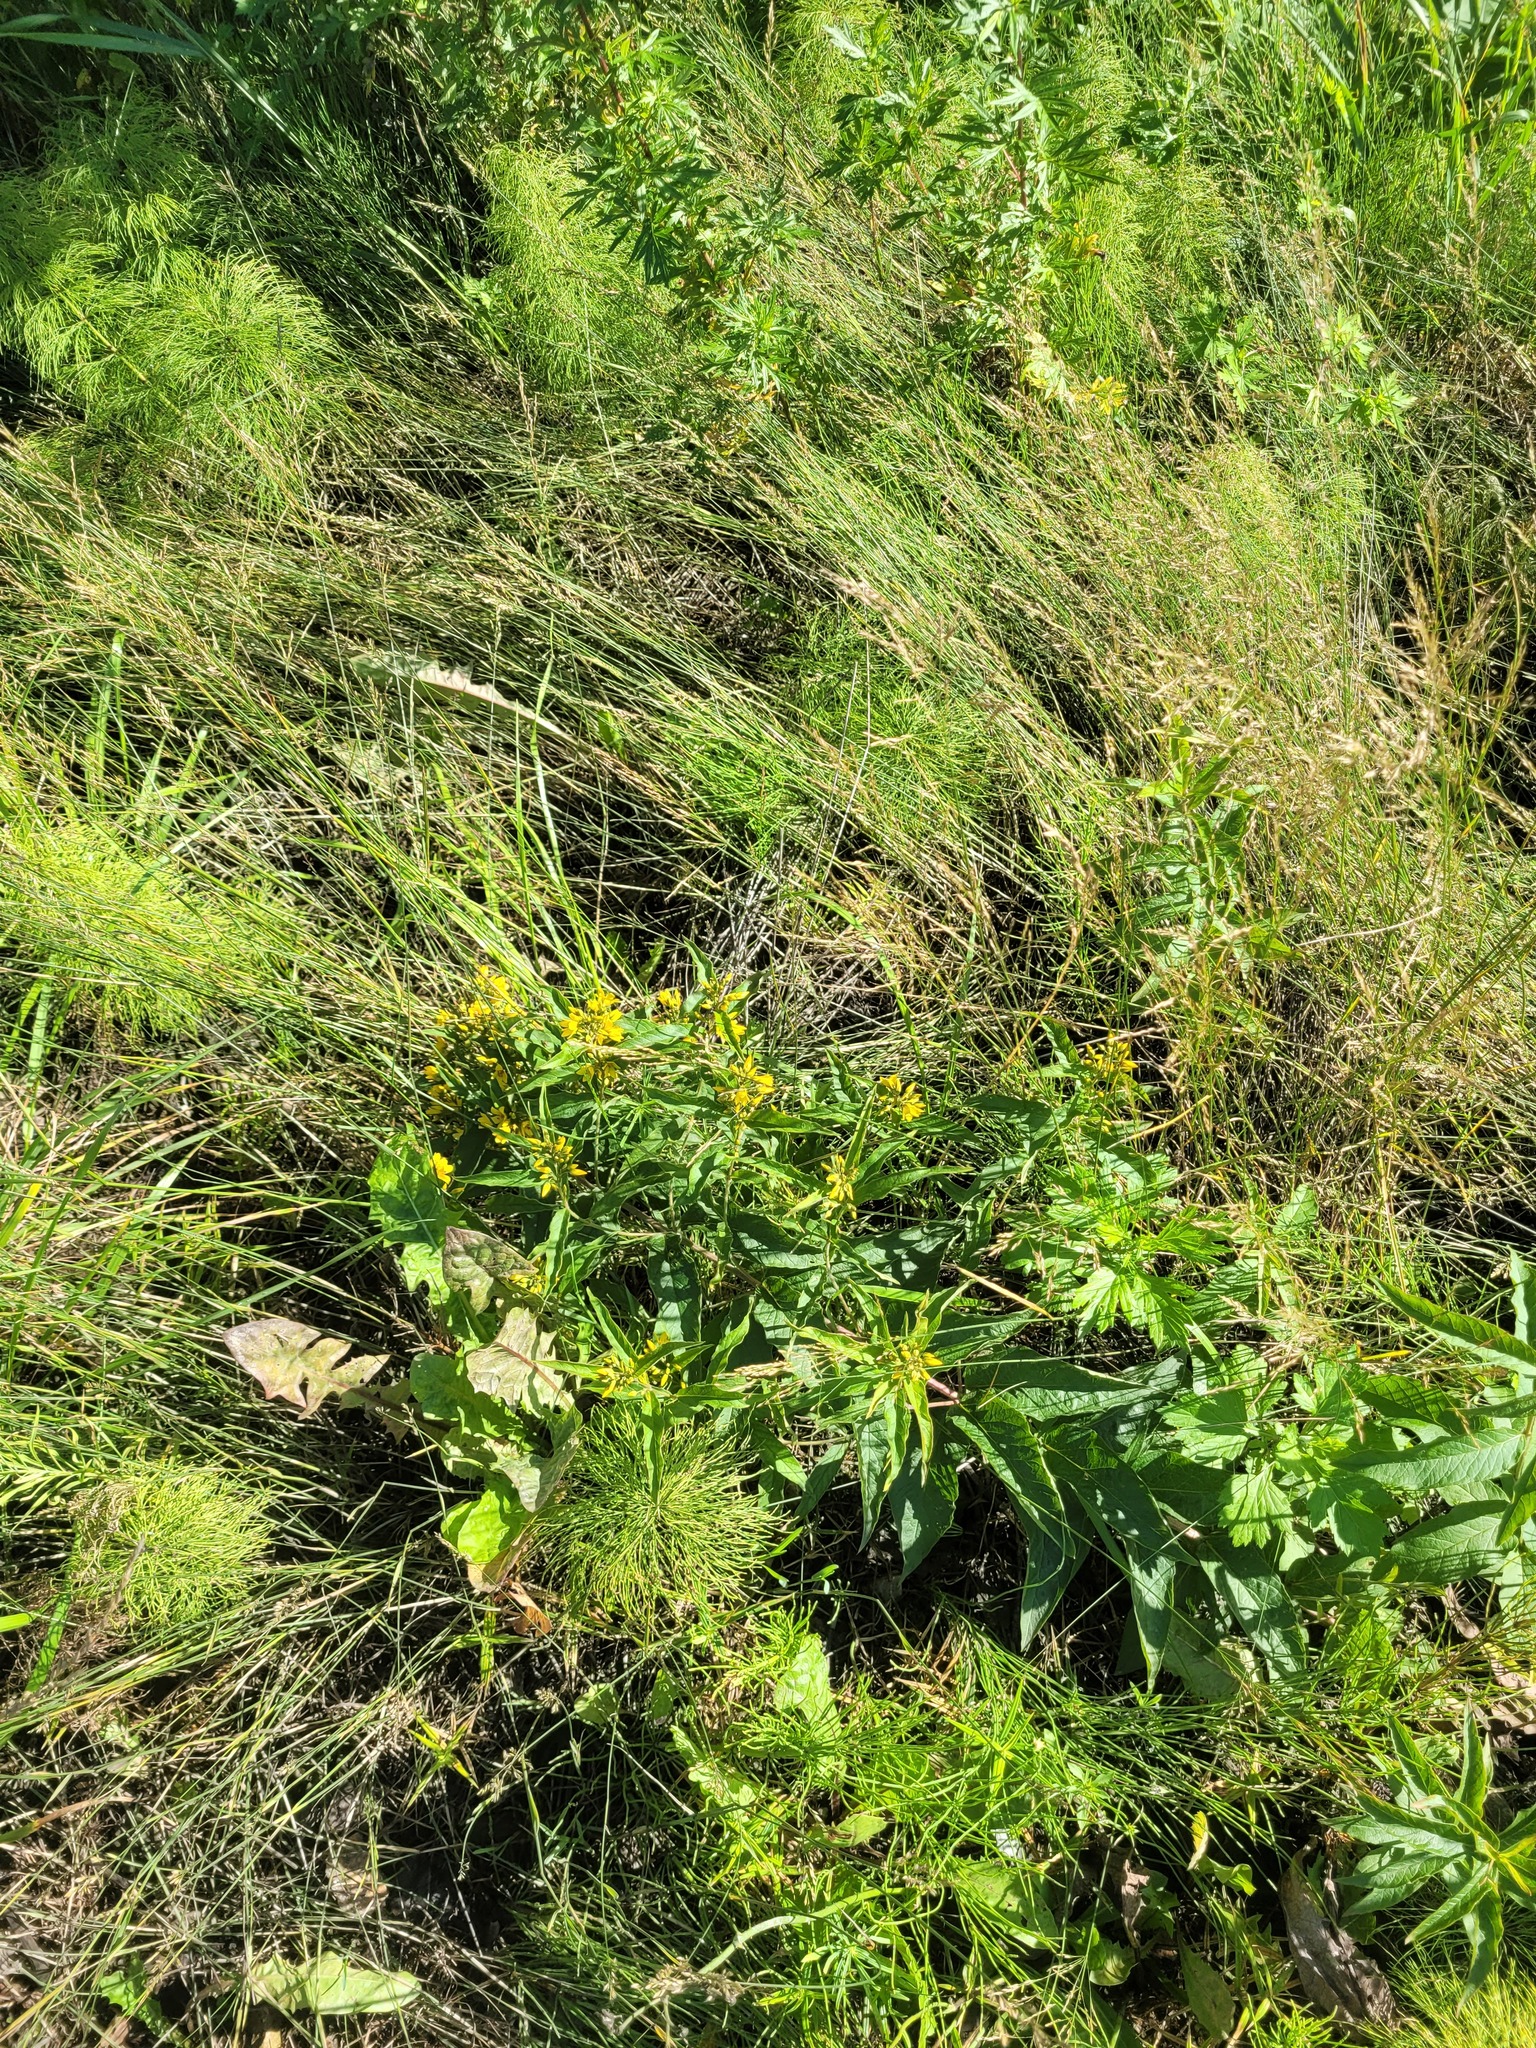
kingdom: Plantae
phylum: Tracheophyta
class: Magnoliopsida
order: Ericales
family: Primulaceae
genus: Lysimachia
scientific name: Lysimachia vulgaris
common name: Yellow loosestrife
